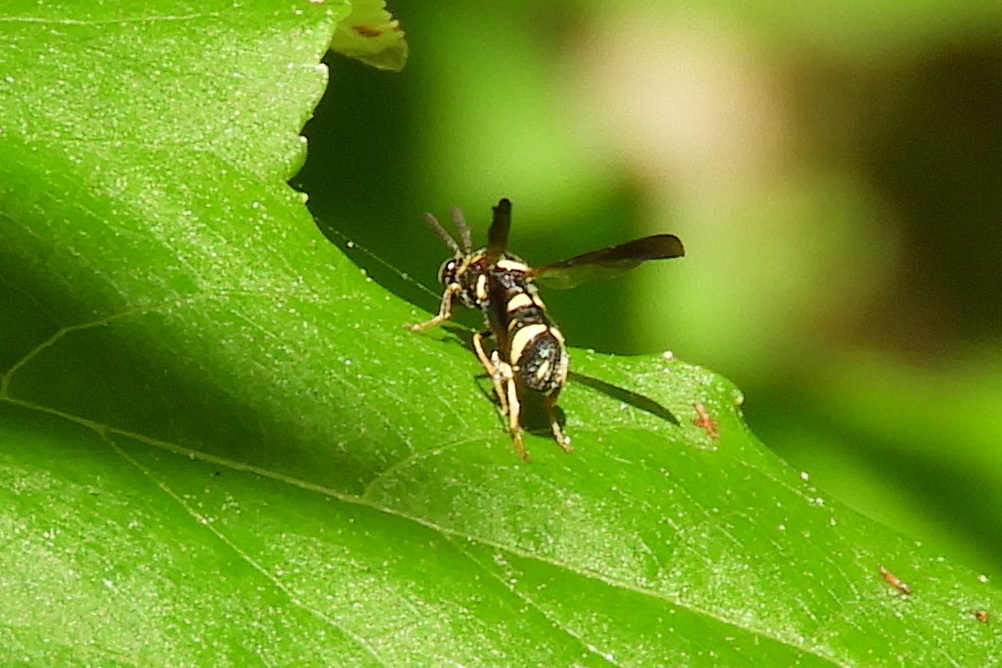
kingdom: Animalia
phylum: Arthropoda
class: Insecta
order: Hymenoptera
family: Leucospidae
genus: Leucospis
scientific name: Leucospis affinis
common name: Wasp
